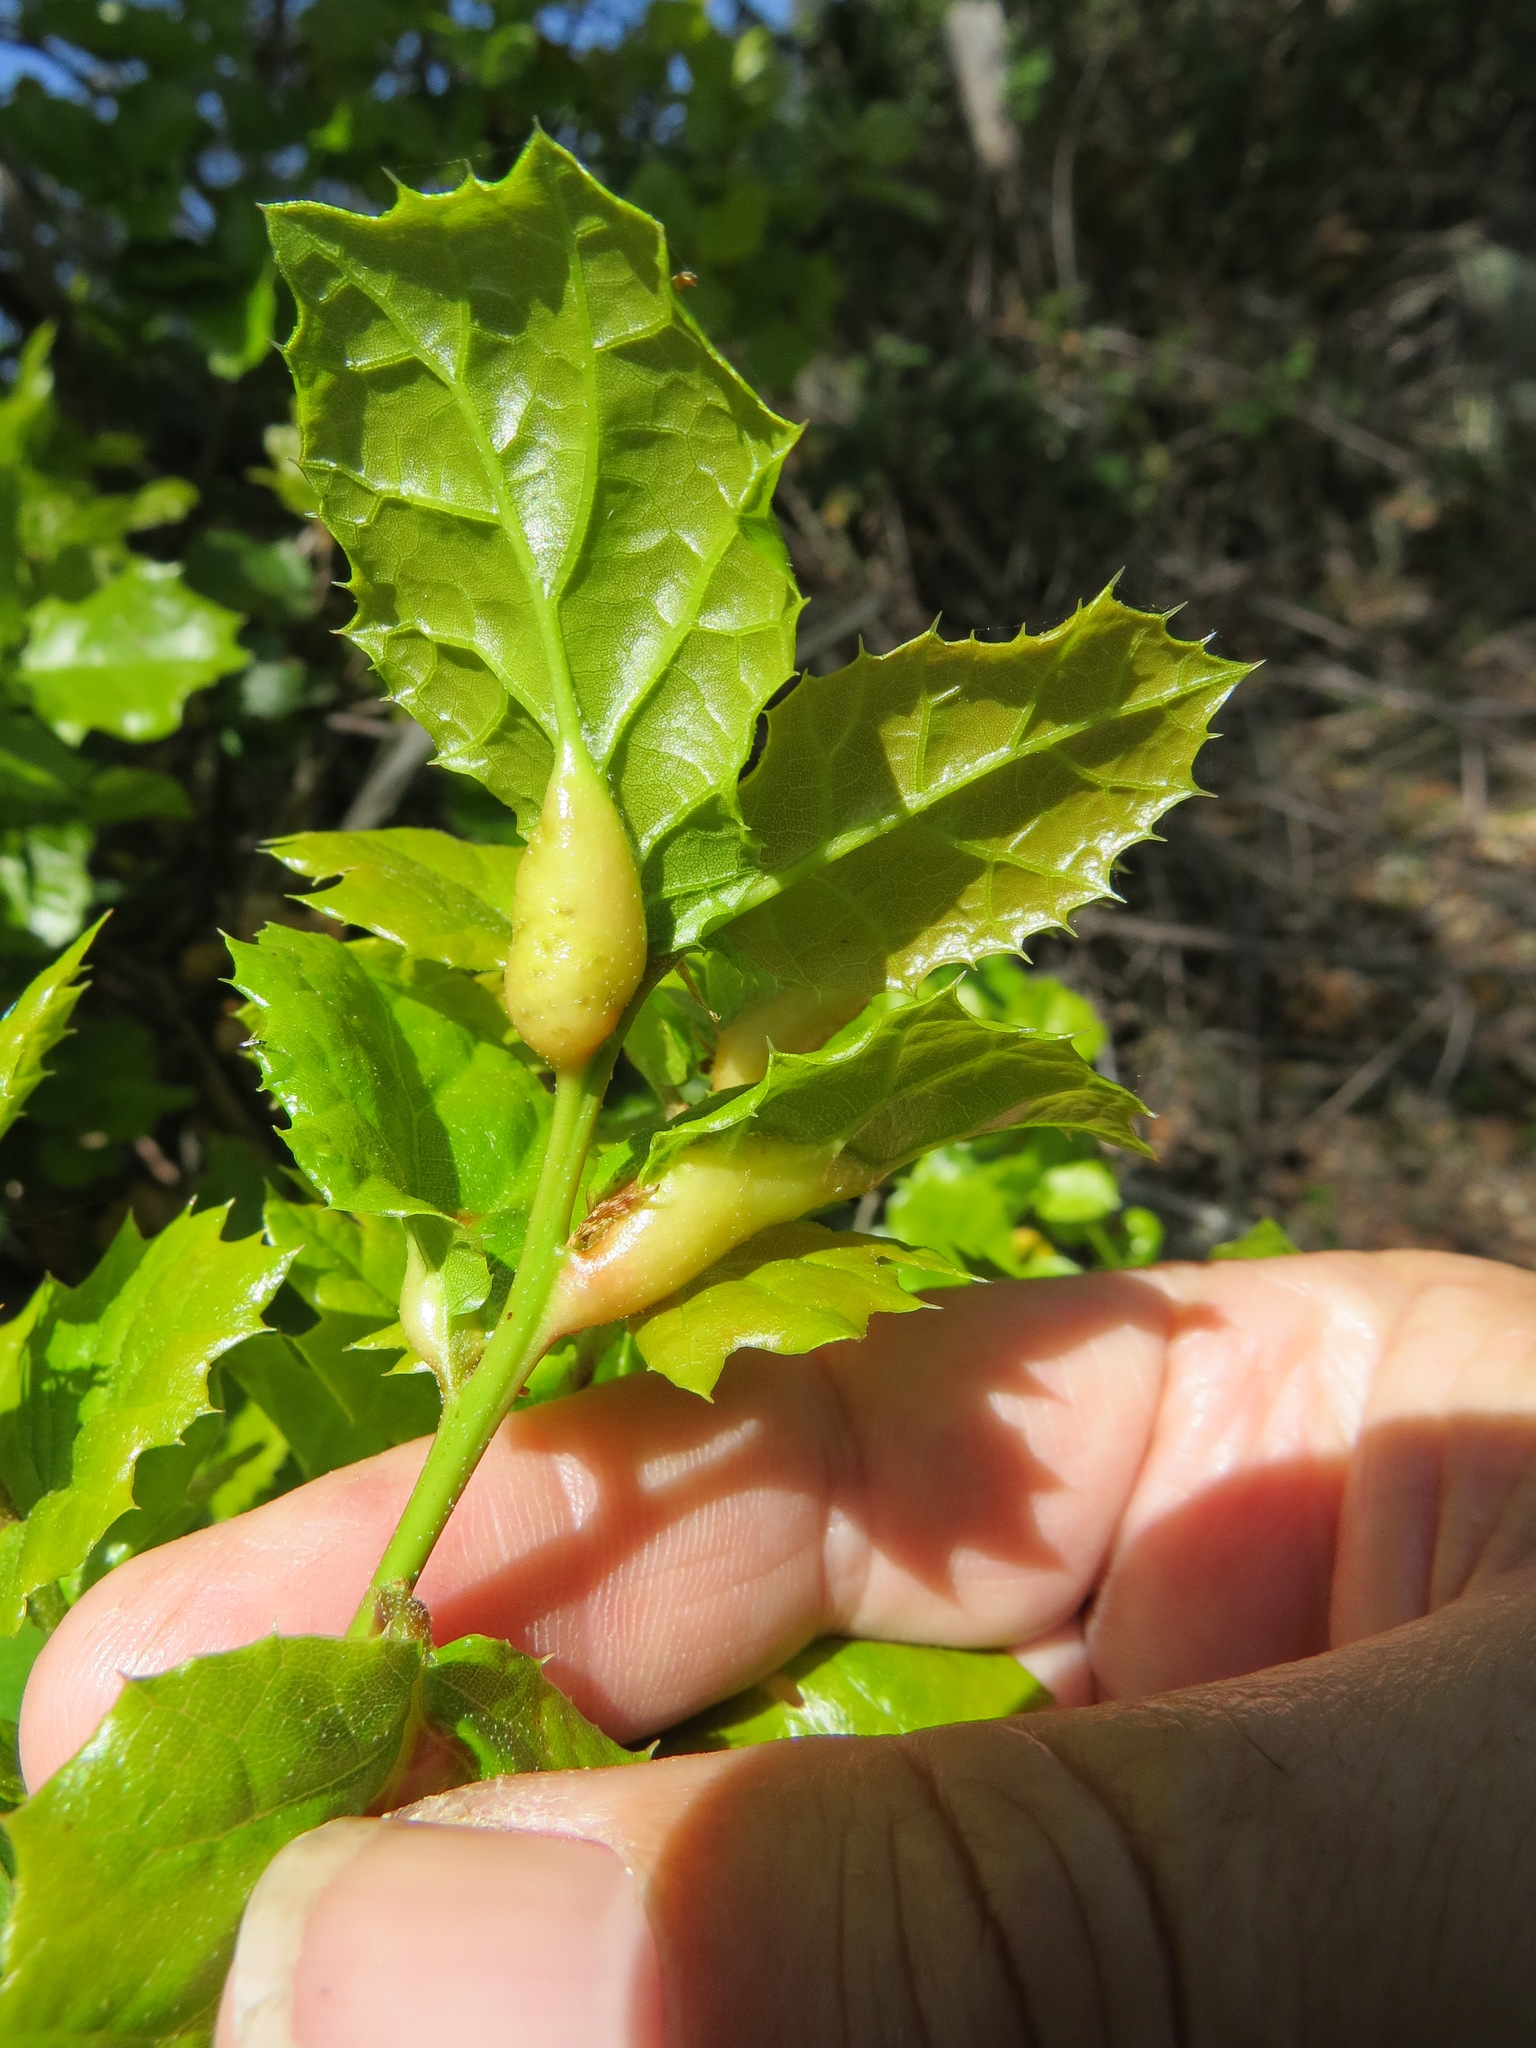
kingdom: Animalia
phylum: Arthropoda
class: Insecta
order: Hymenoptera
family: Cynipidae
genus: Melikaiella
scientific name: Melikaiella
